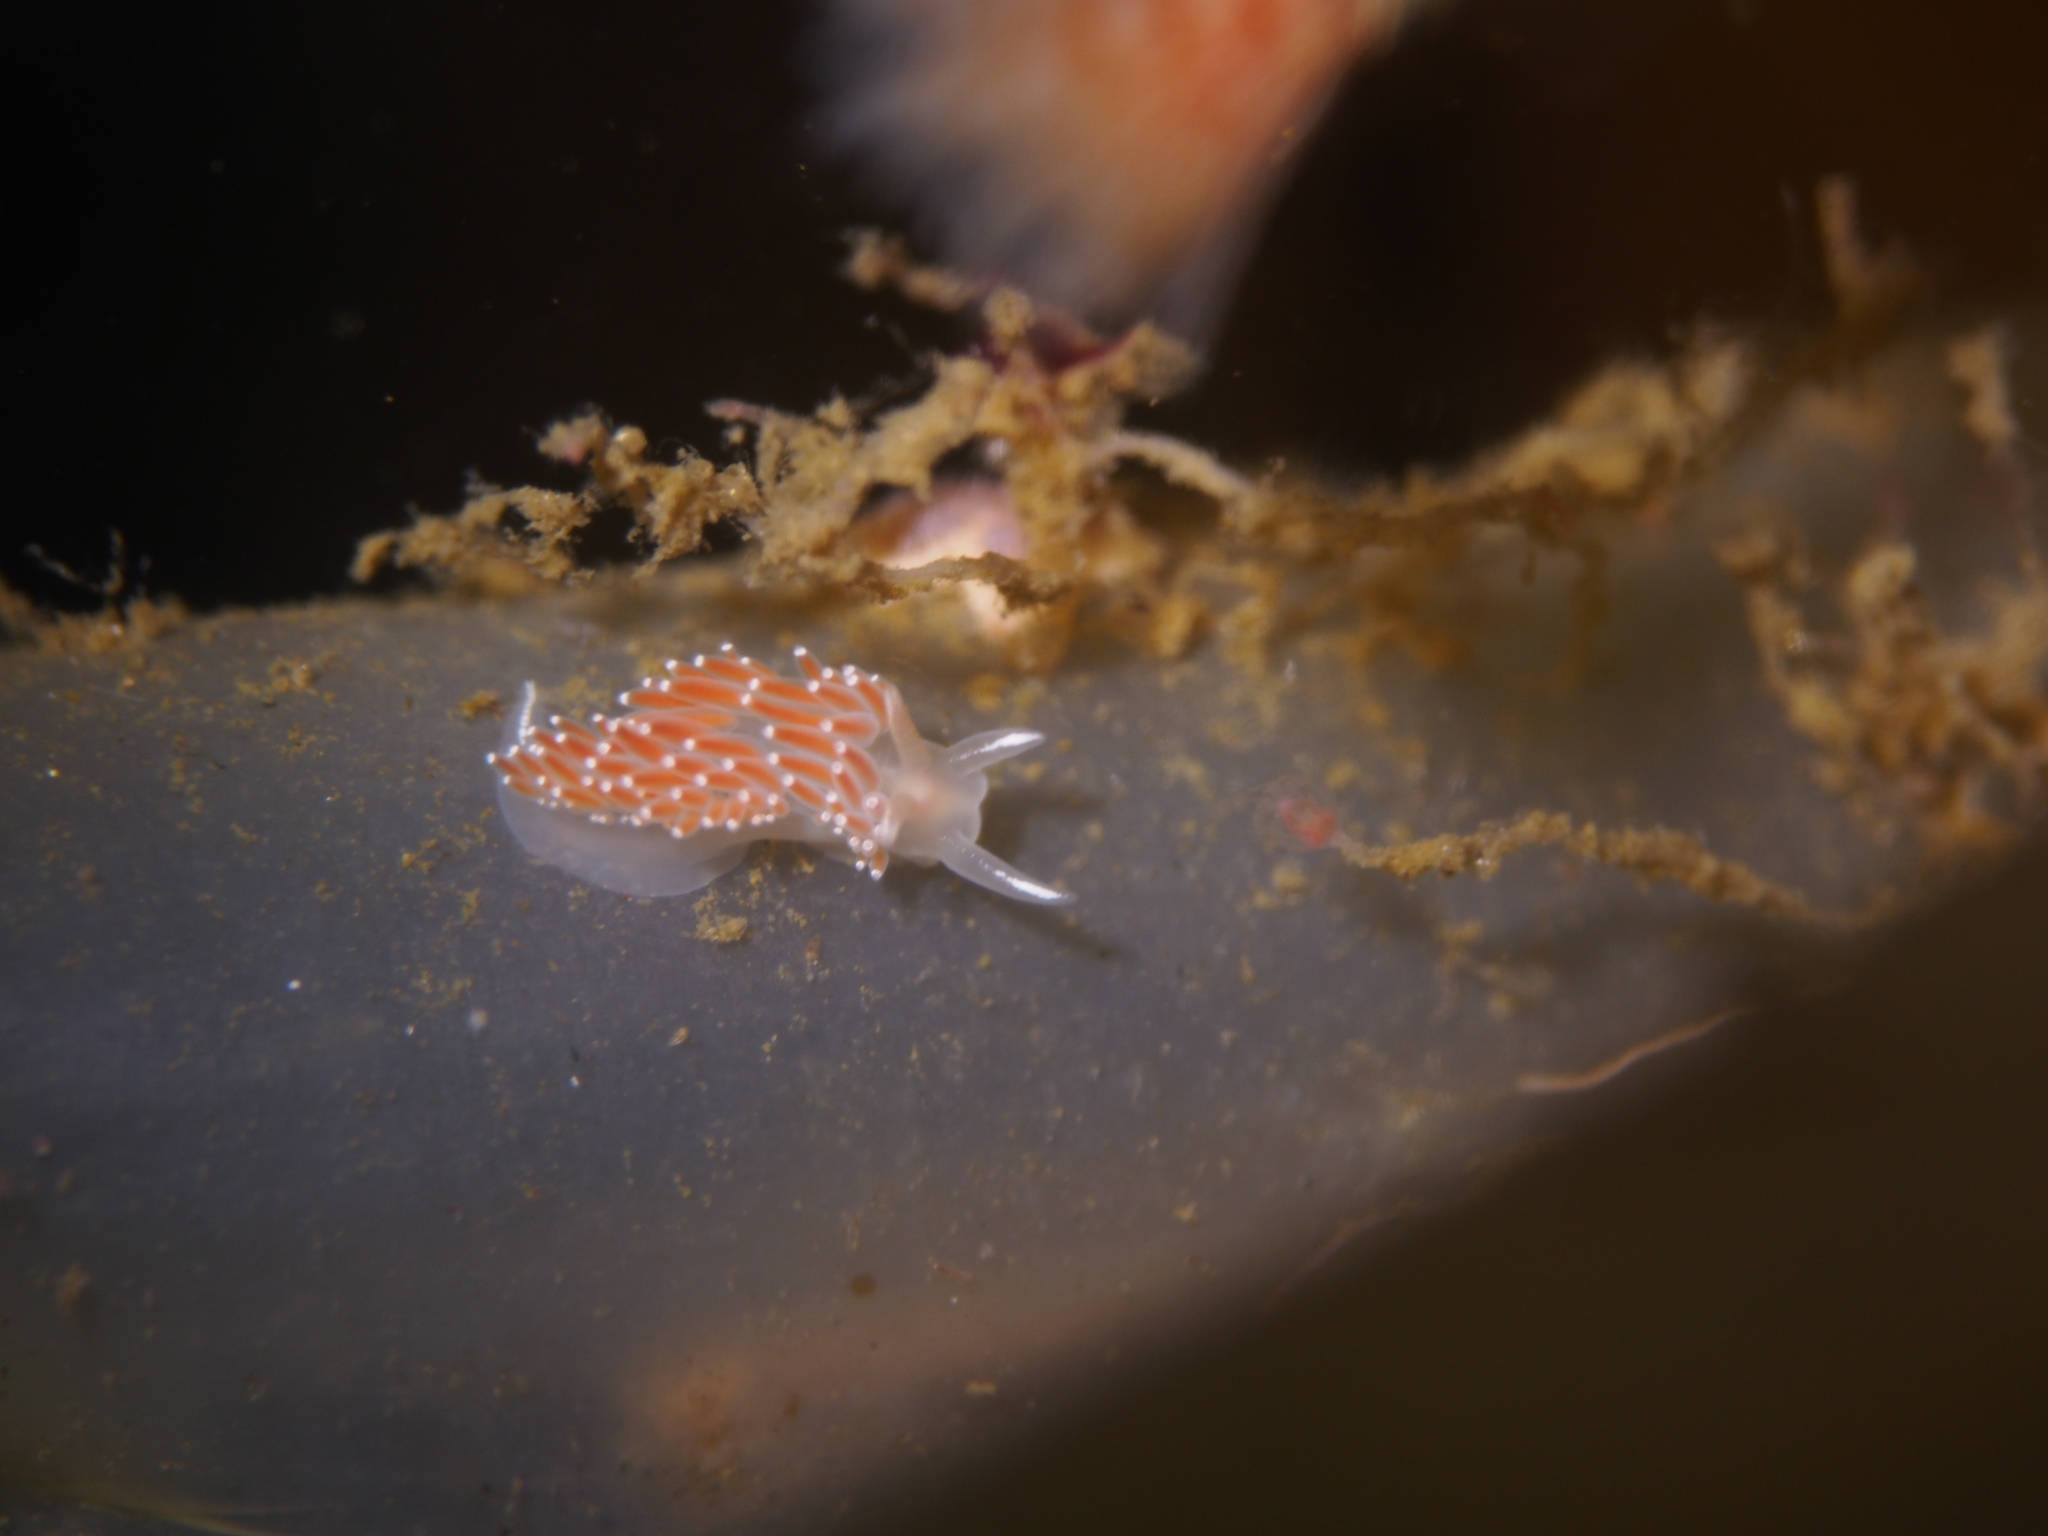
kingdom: Animalia
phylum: Mollusca
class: Gastropoda
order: Nudibranchia
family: Coryphellidae
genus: Coryphella
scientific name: Coryphella verrucosa
